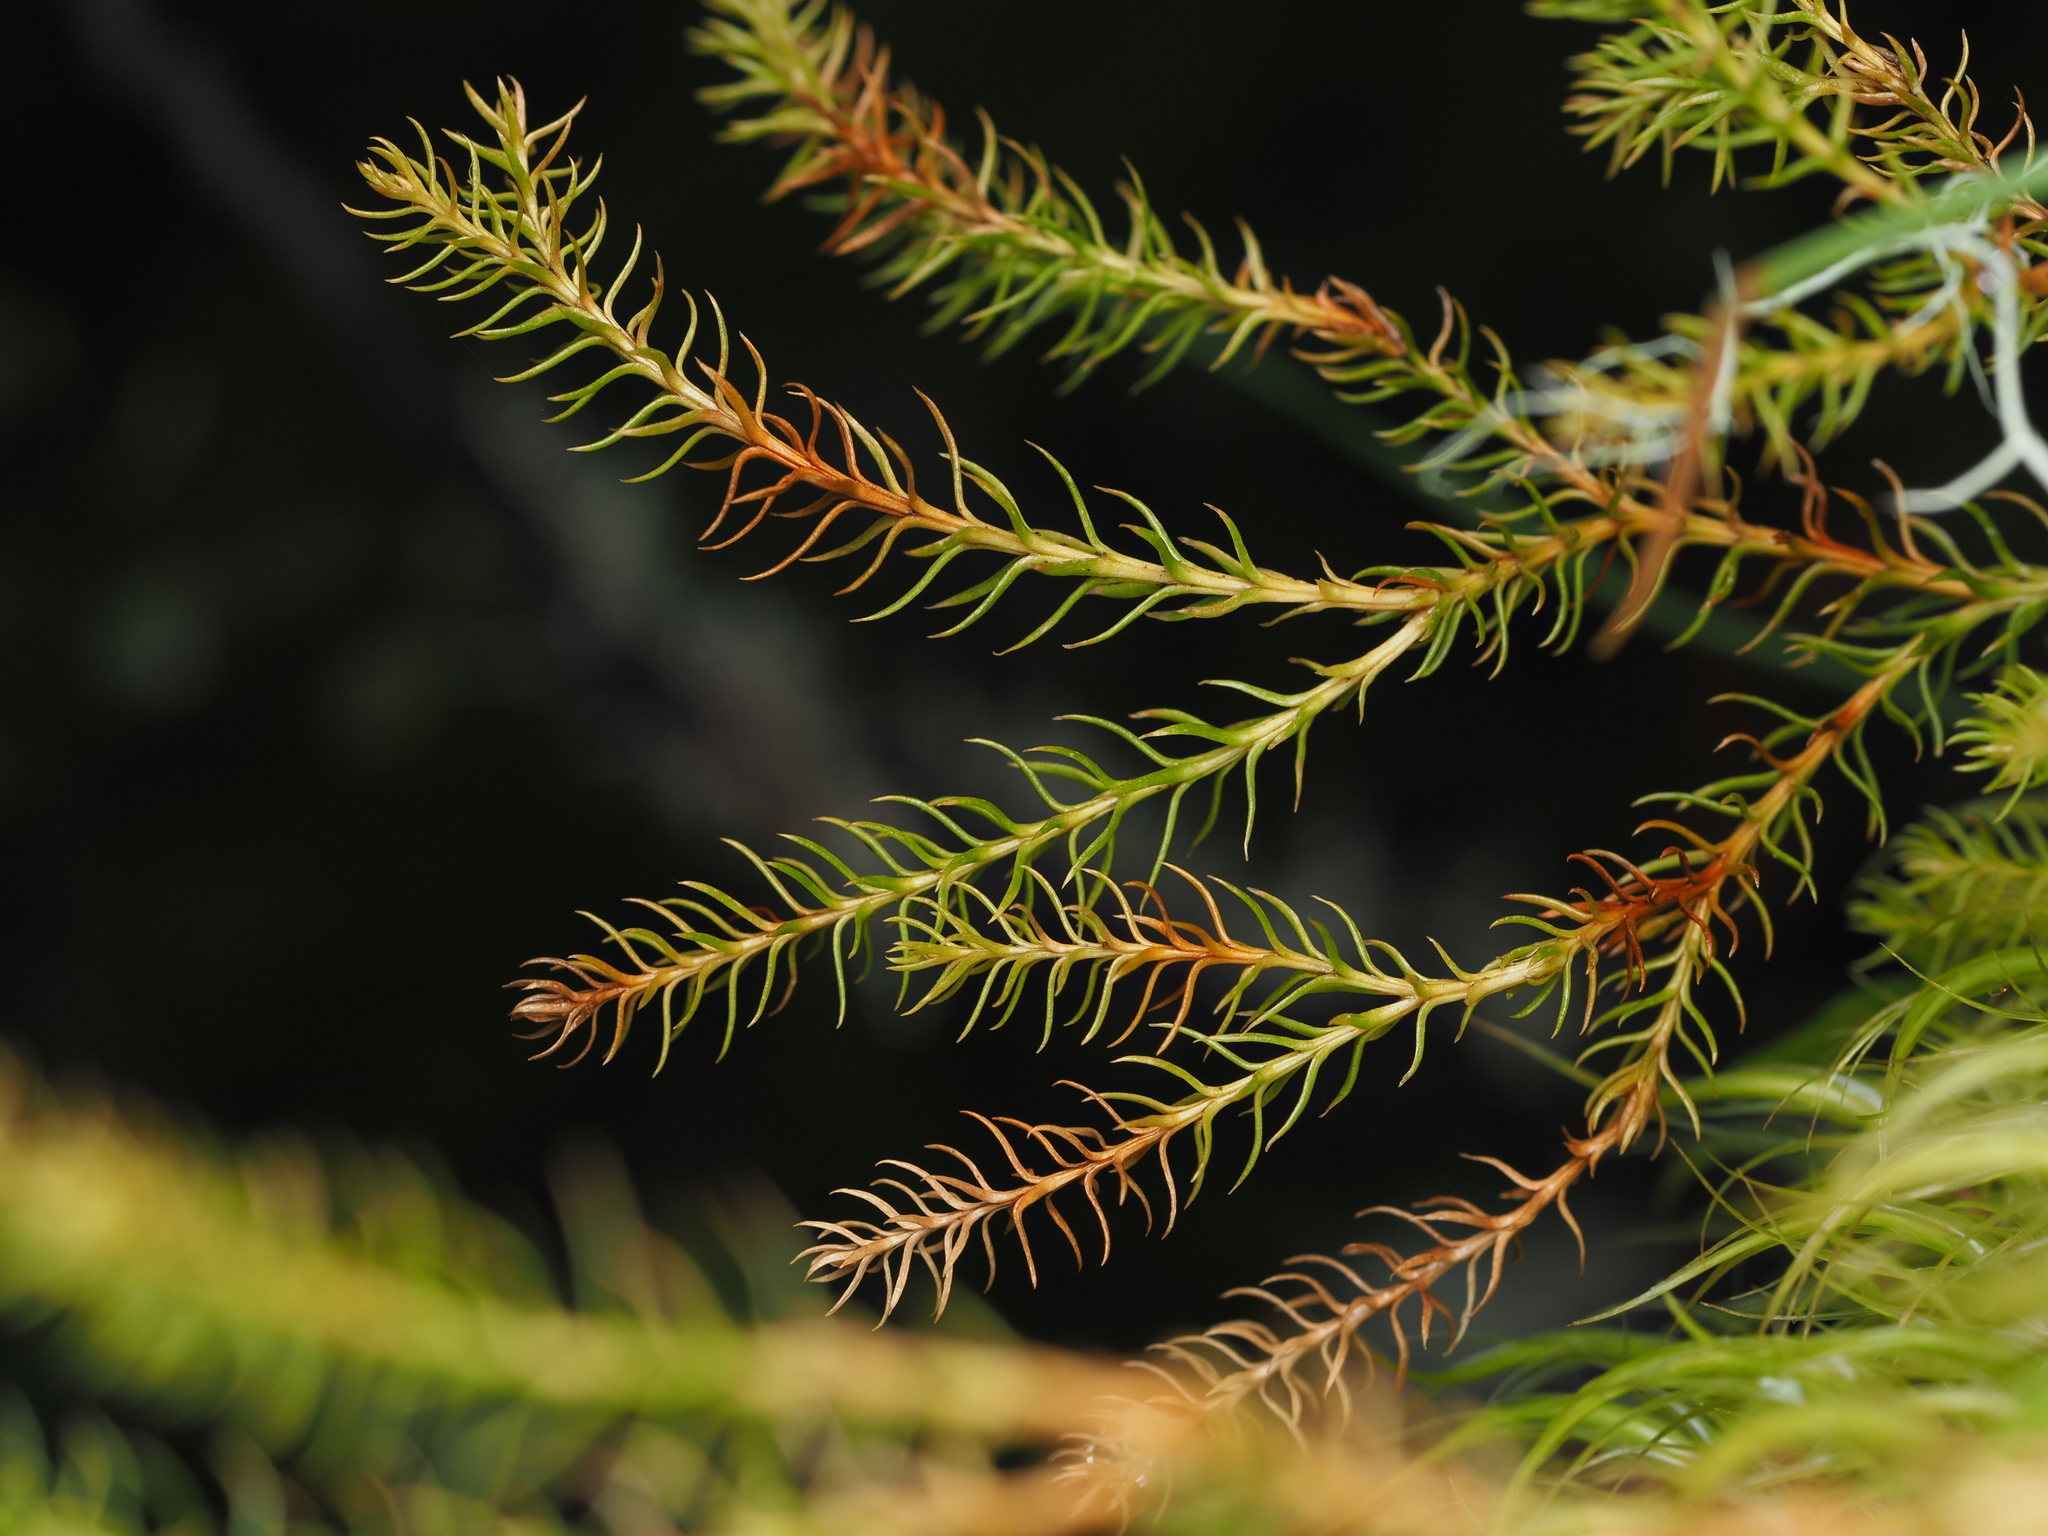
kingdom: Plantae
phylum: Tracheophyta
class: Lycopodiopsida
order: Lycopodiales
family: Lycopodiaceae
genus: Austrolycopodium
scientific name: Austrolycopodium fastigiatum
